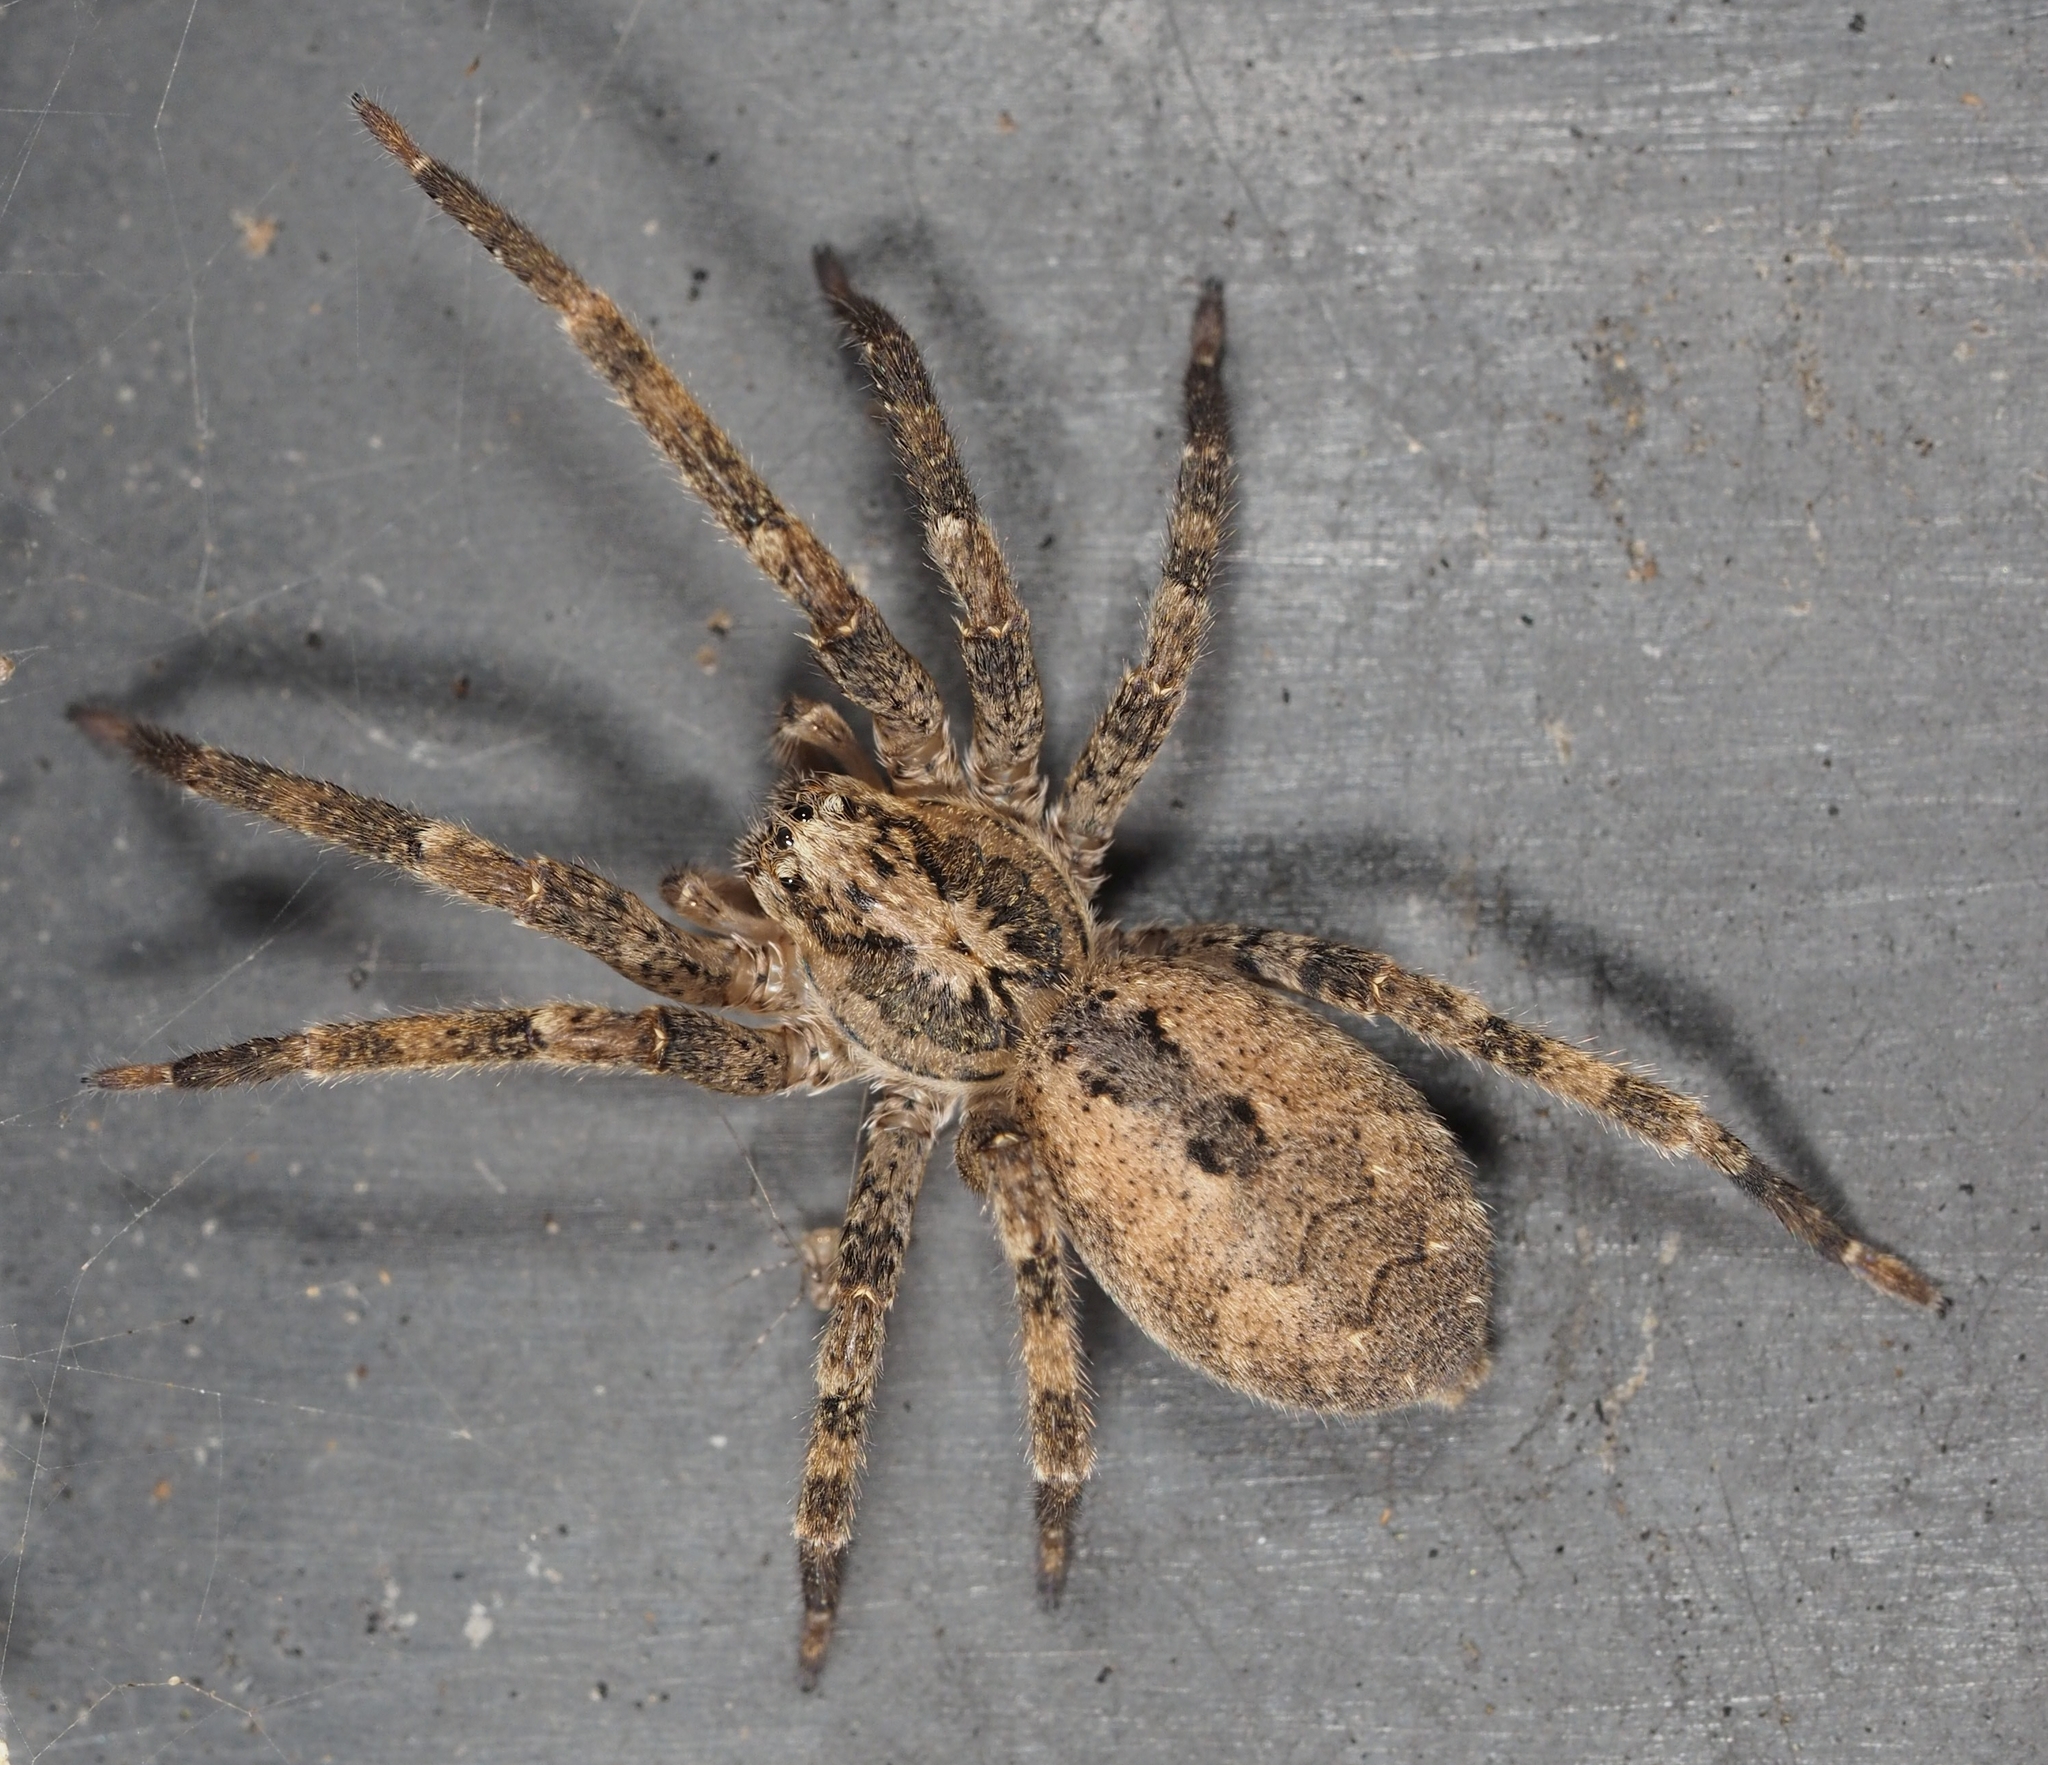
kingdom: Animalia
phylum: Arthropoda
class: Arachnida
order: Araneae
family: Zoropsidae
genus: Zoropsis
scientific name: Zoropsis spinimana
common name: Zoropsid spider
